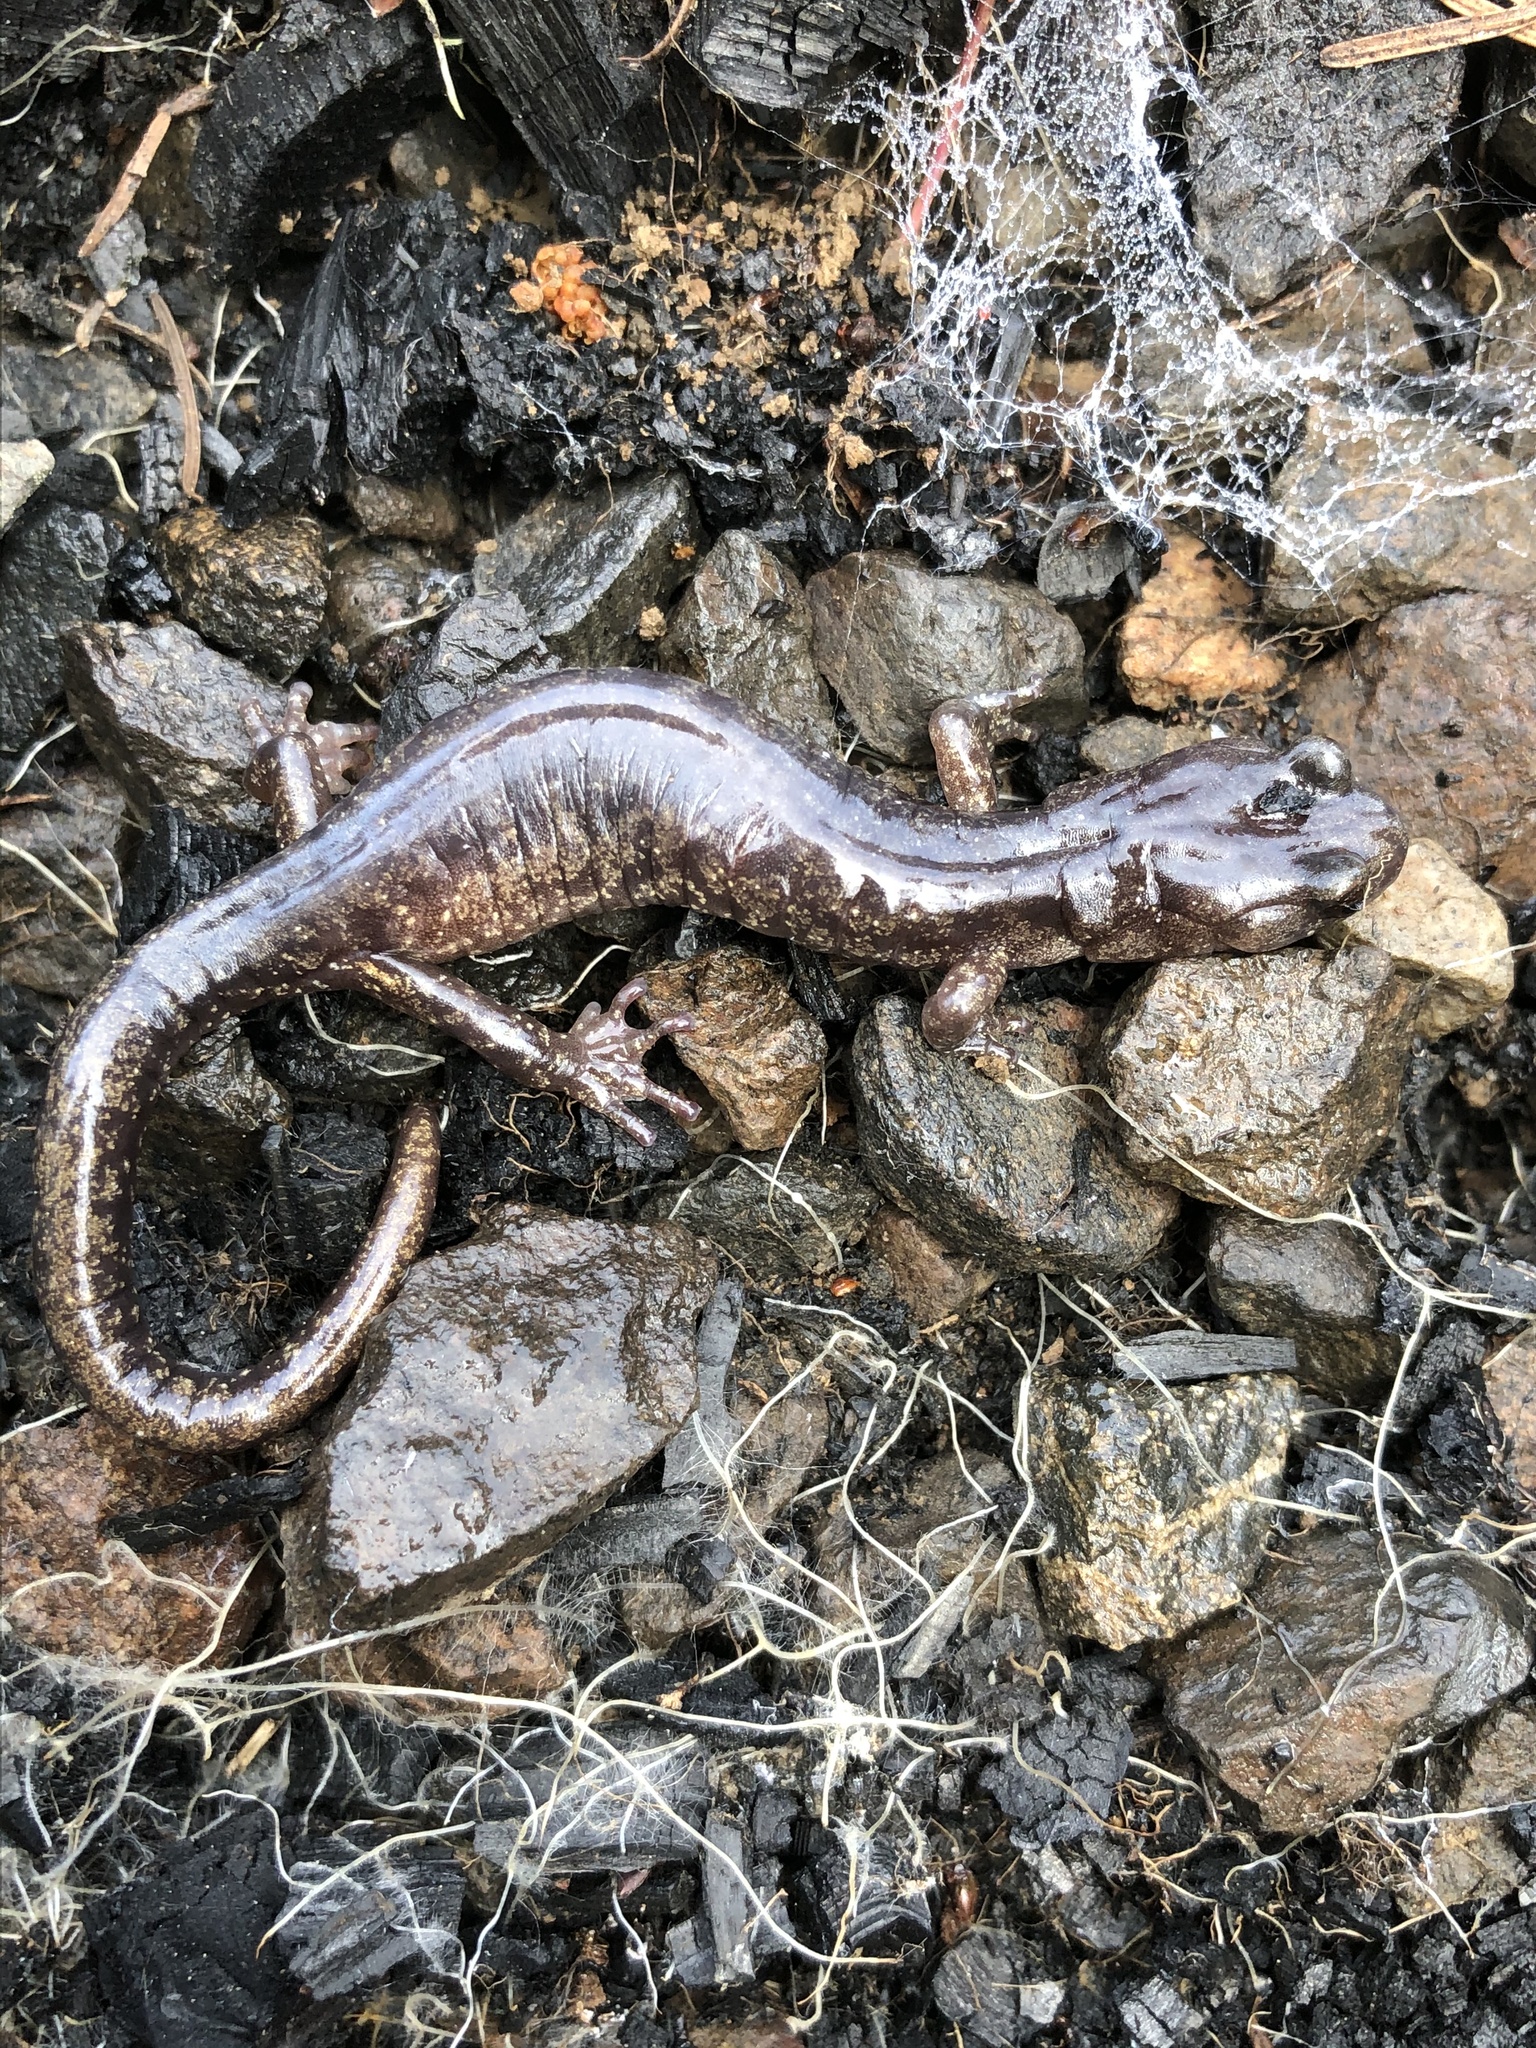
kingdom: Animalia
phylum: Chordata
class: Amphibia
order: Caudata
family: Plethodontidae
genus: Aneides
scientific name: Aneides ferreus
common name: Clouded salamander
